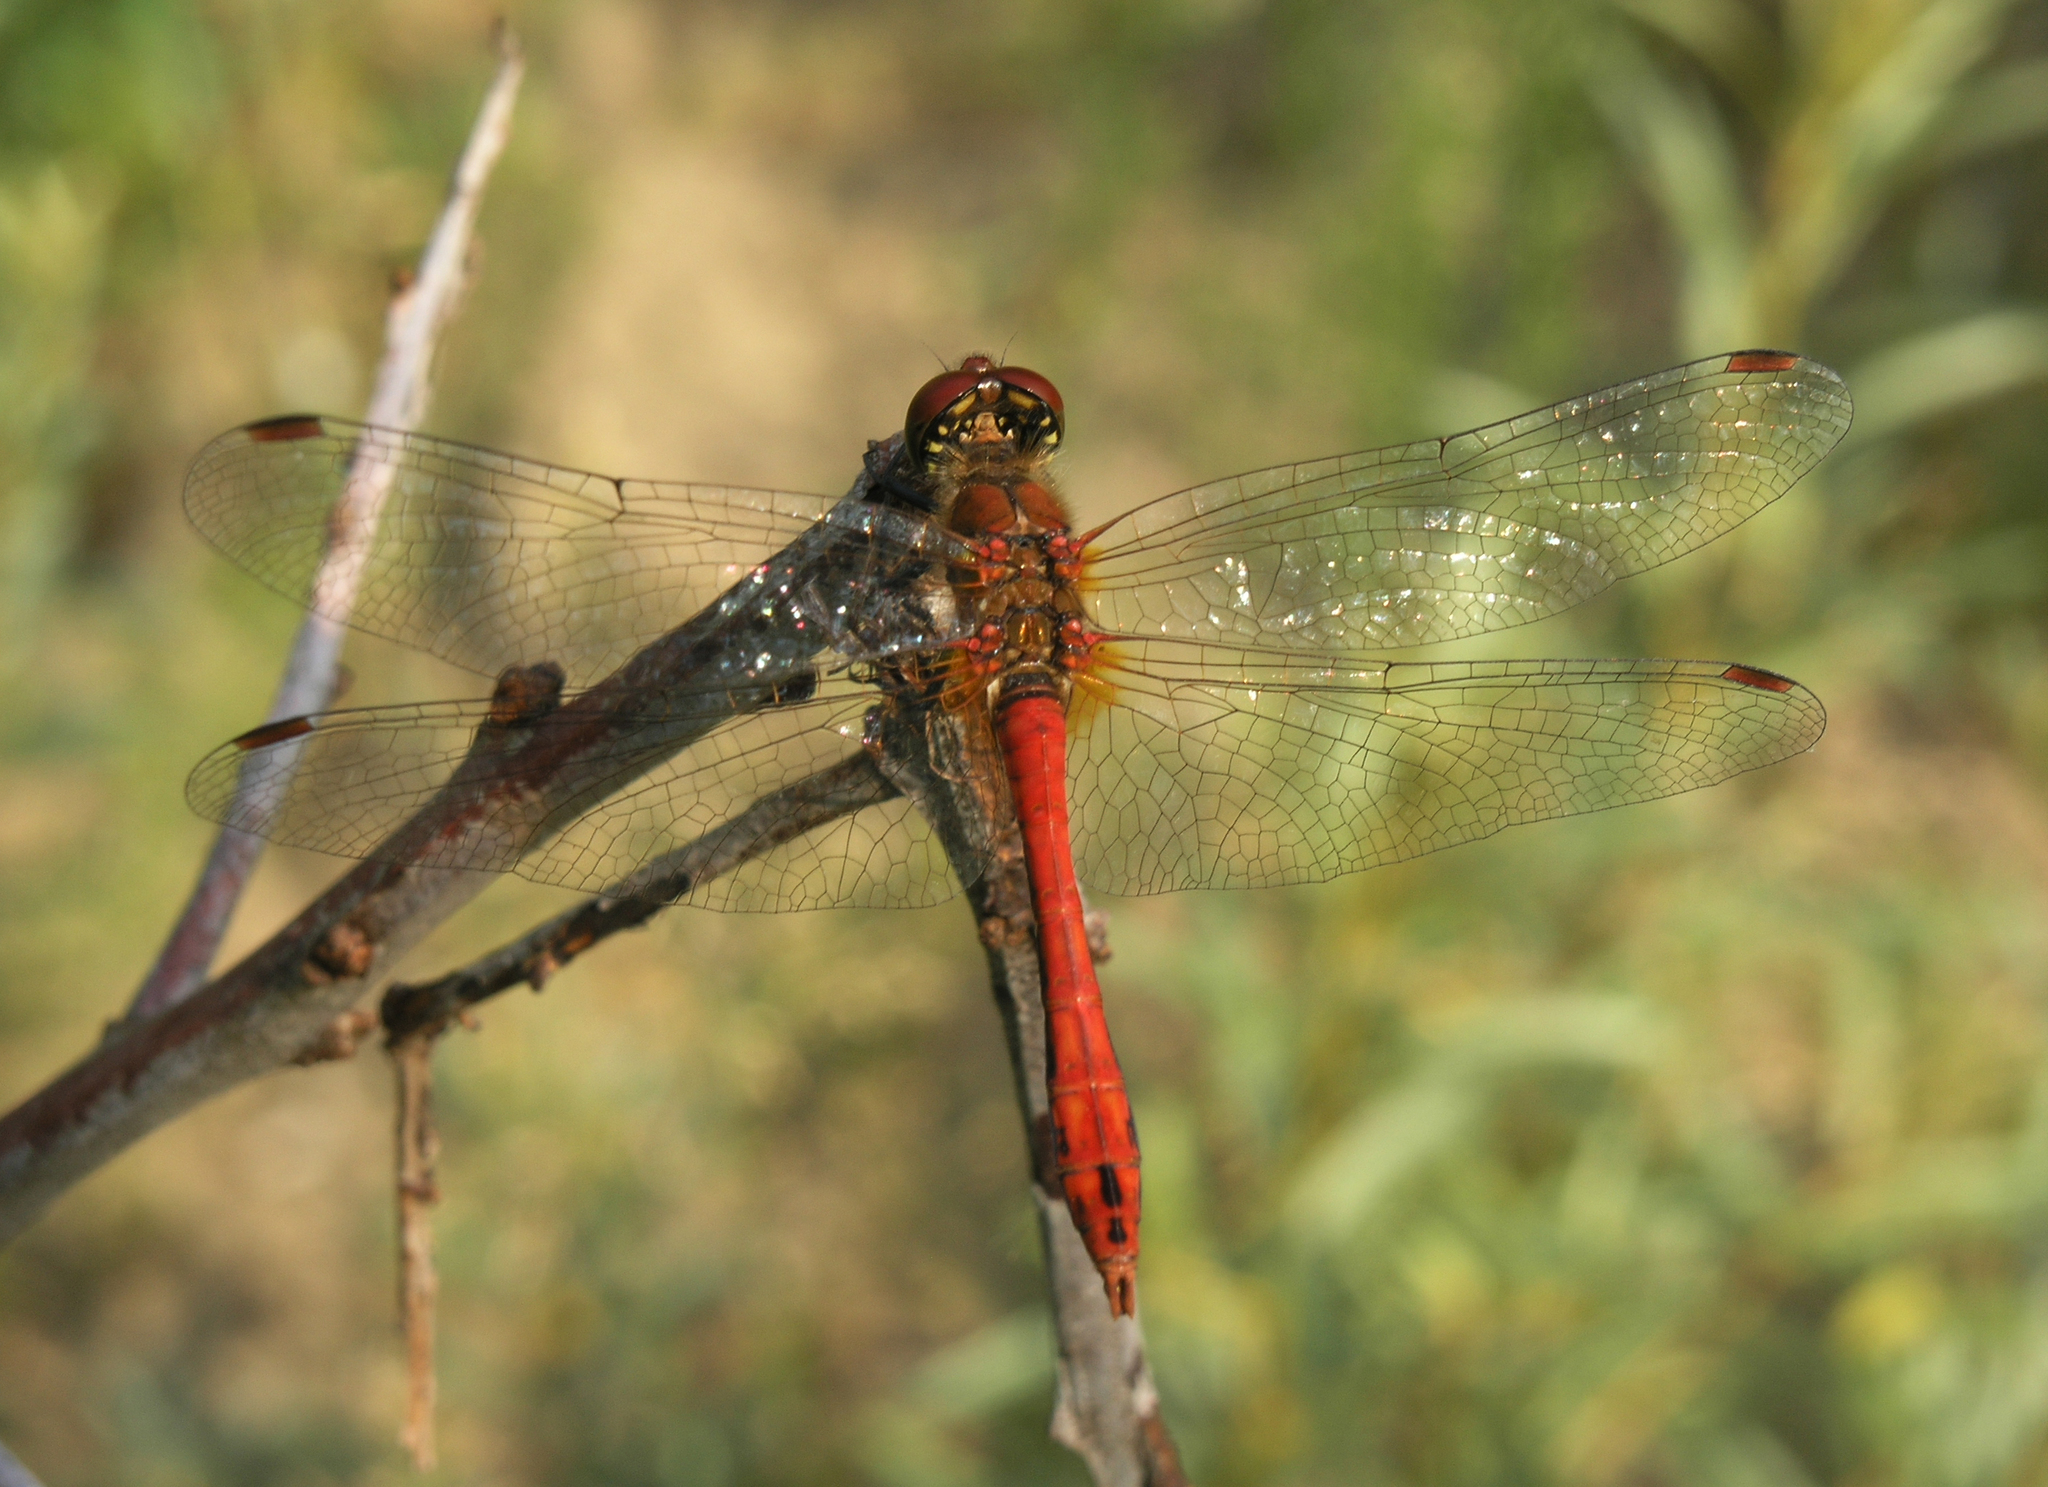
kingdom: Animalia
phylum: Arthropoda
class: Insecta
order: Odonata
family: Libellulidae
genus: Sympetrum
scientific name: Sympetrum sanguineum
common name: Ruddy darter
